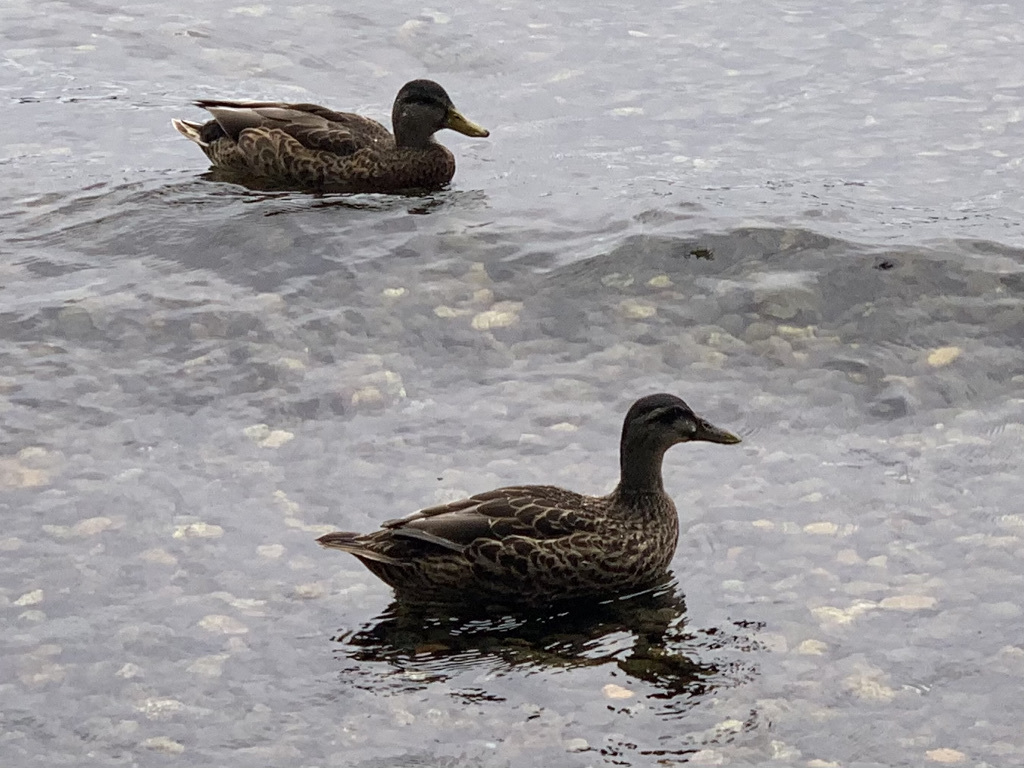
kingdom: Animalia
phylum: Chordata
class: Aves
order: Anseriformes
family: Anatidae
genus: Anas
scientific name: Anas platyrhynchos
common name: Mallard
